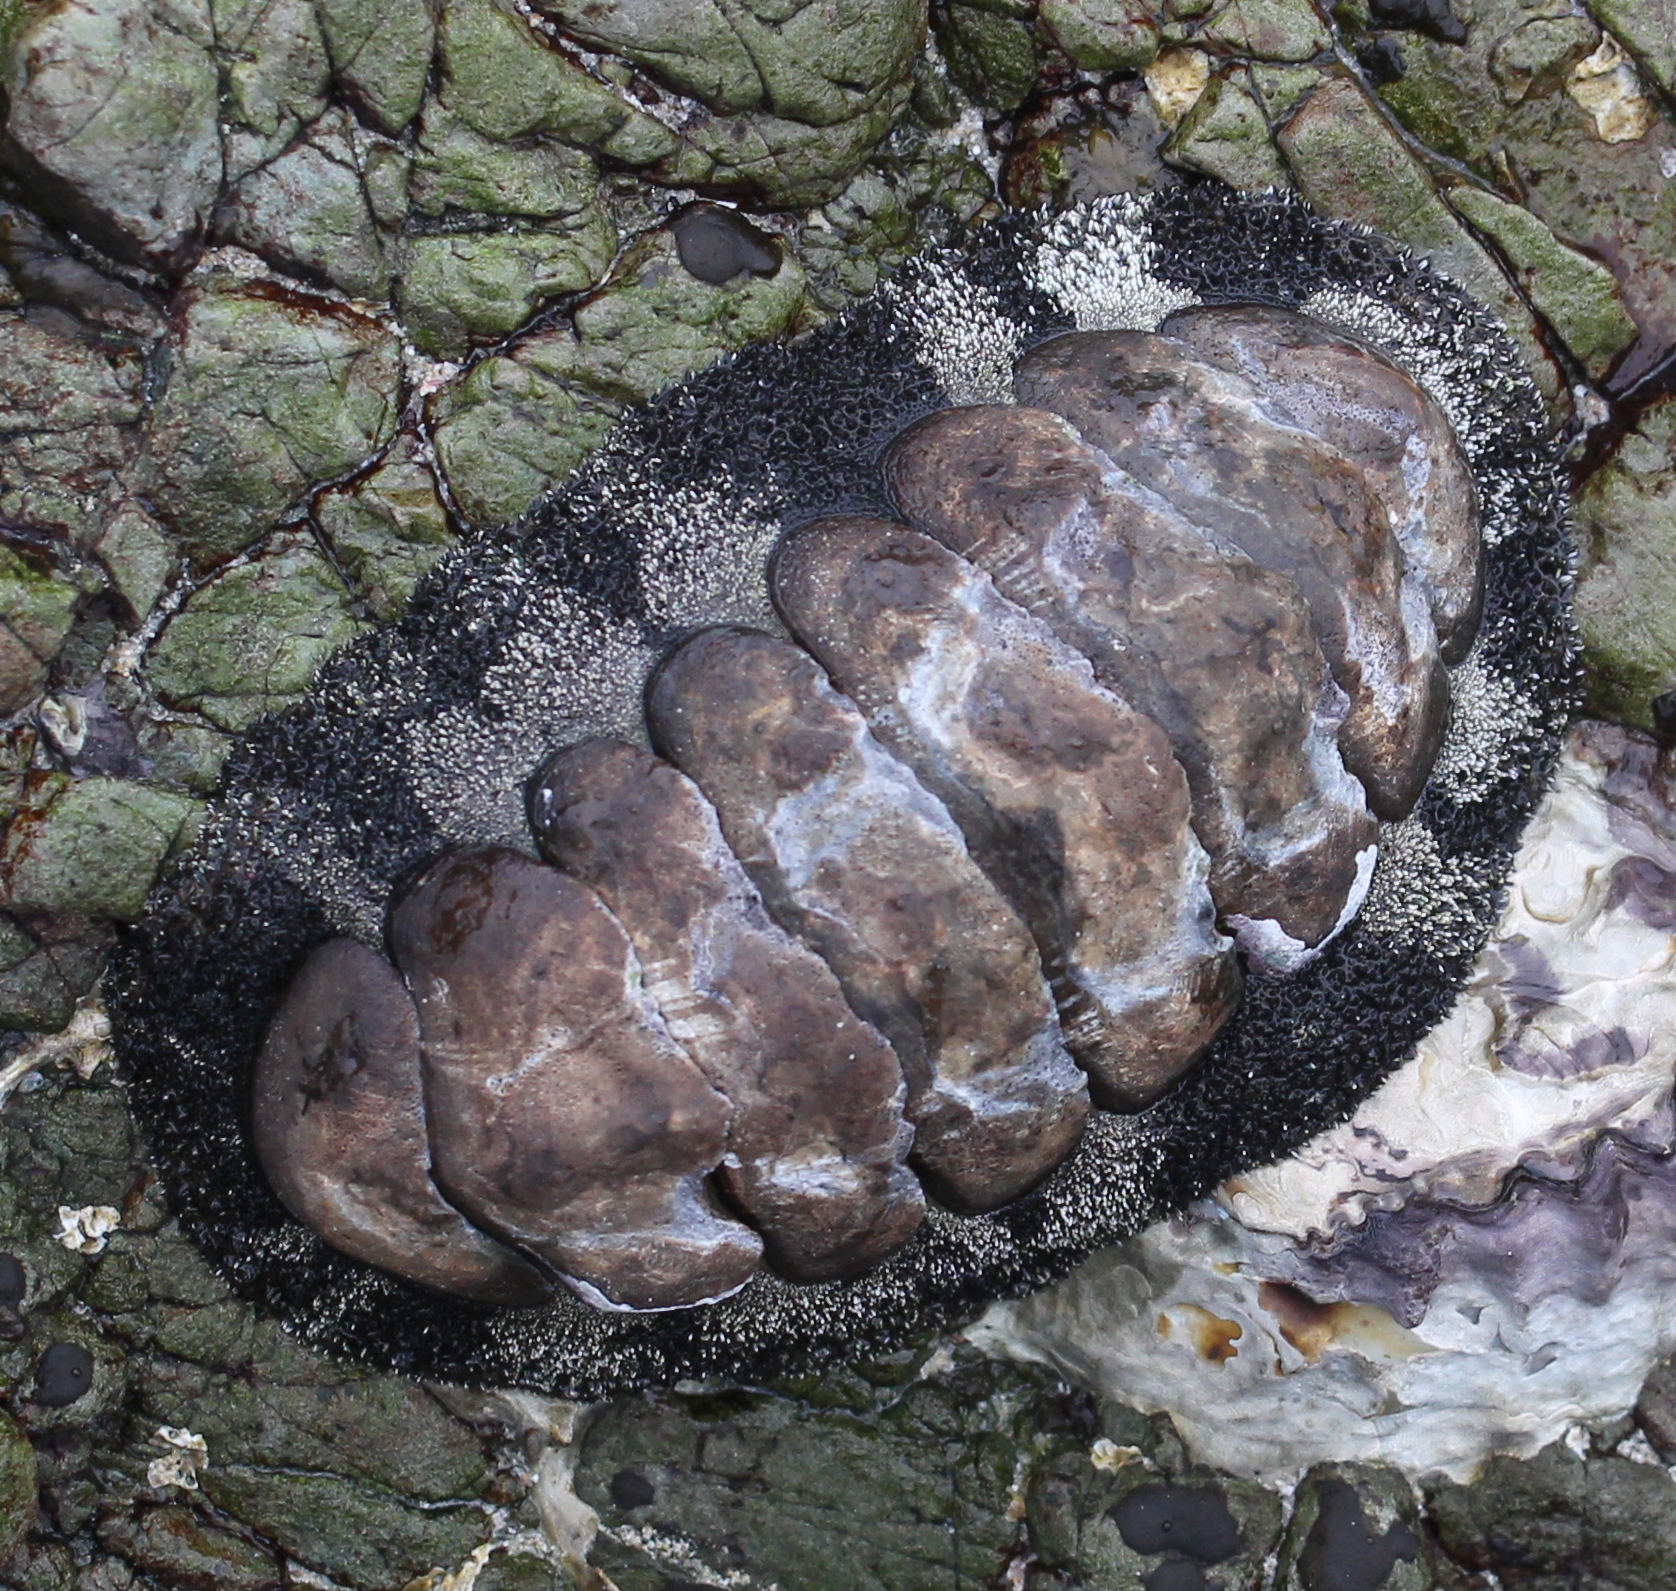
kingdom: Animalia
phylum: Mollusca
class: Polyplacophora
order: Chitonida
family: Chitonidae
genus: Acanthopleura
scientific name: Acanthopleura vaillantii
